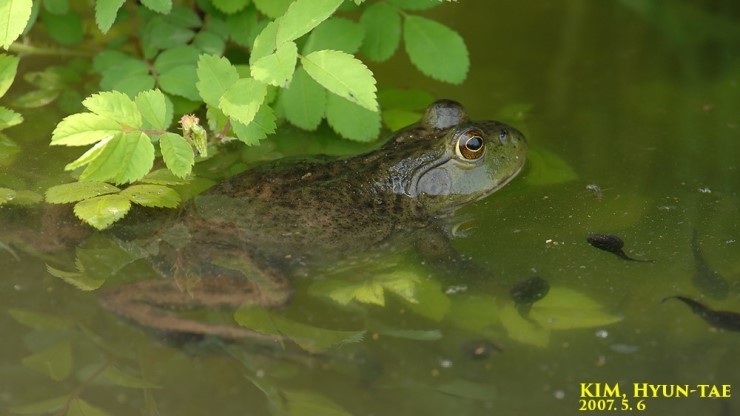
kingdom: Animalia
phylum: Chordata
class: Amphibia
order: Anura
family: Ranidae
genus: Lithobates
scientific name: Lithobates catesbeianus
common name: American bullfrog
